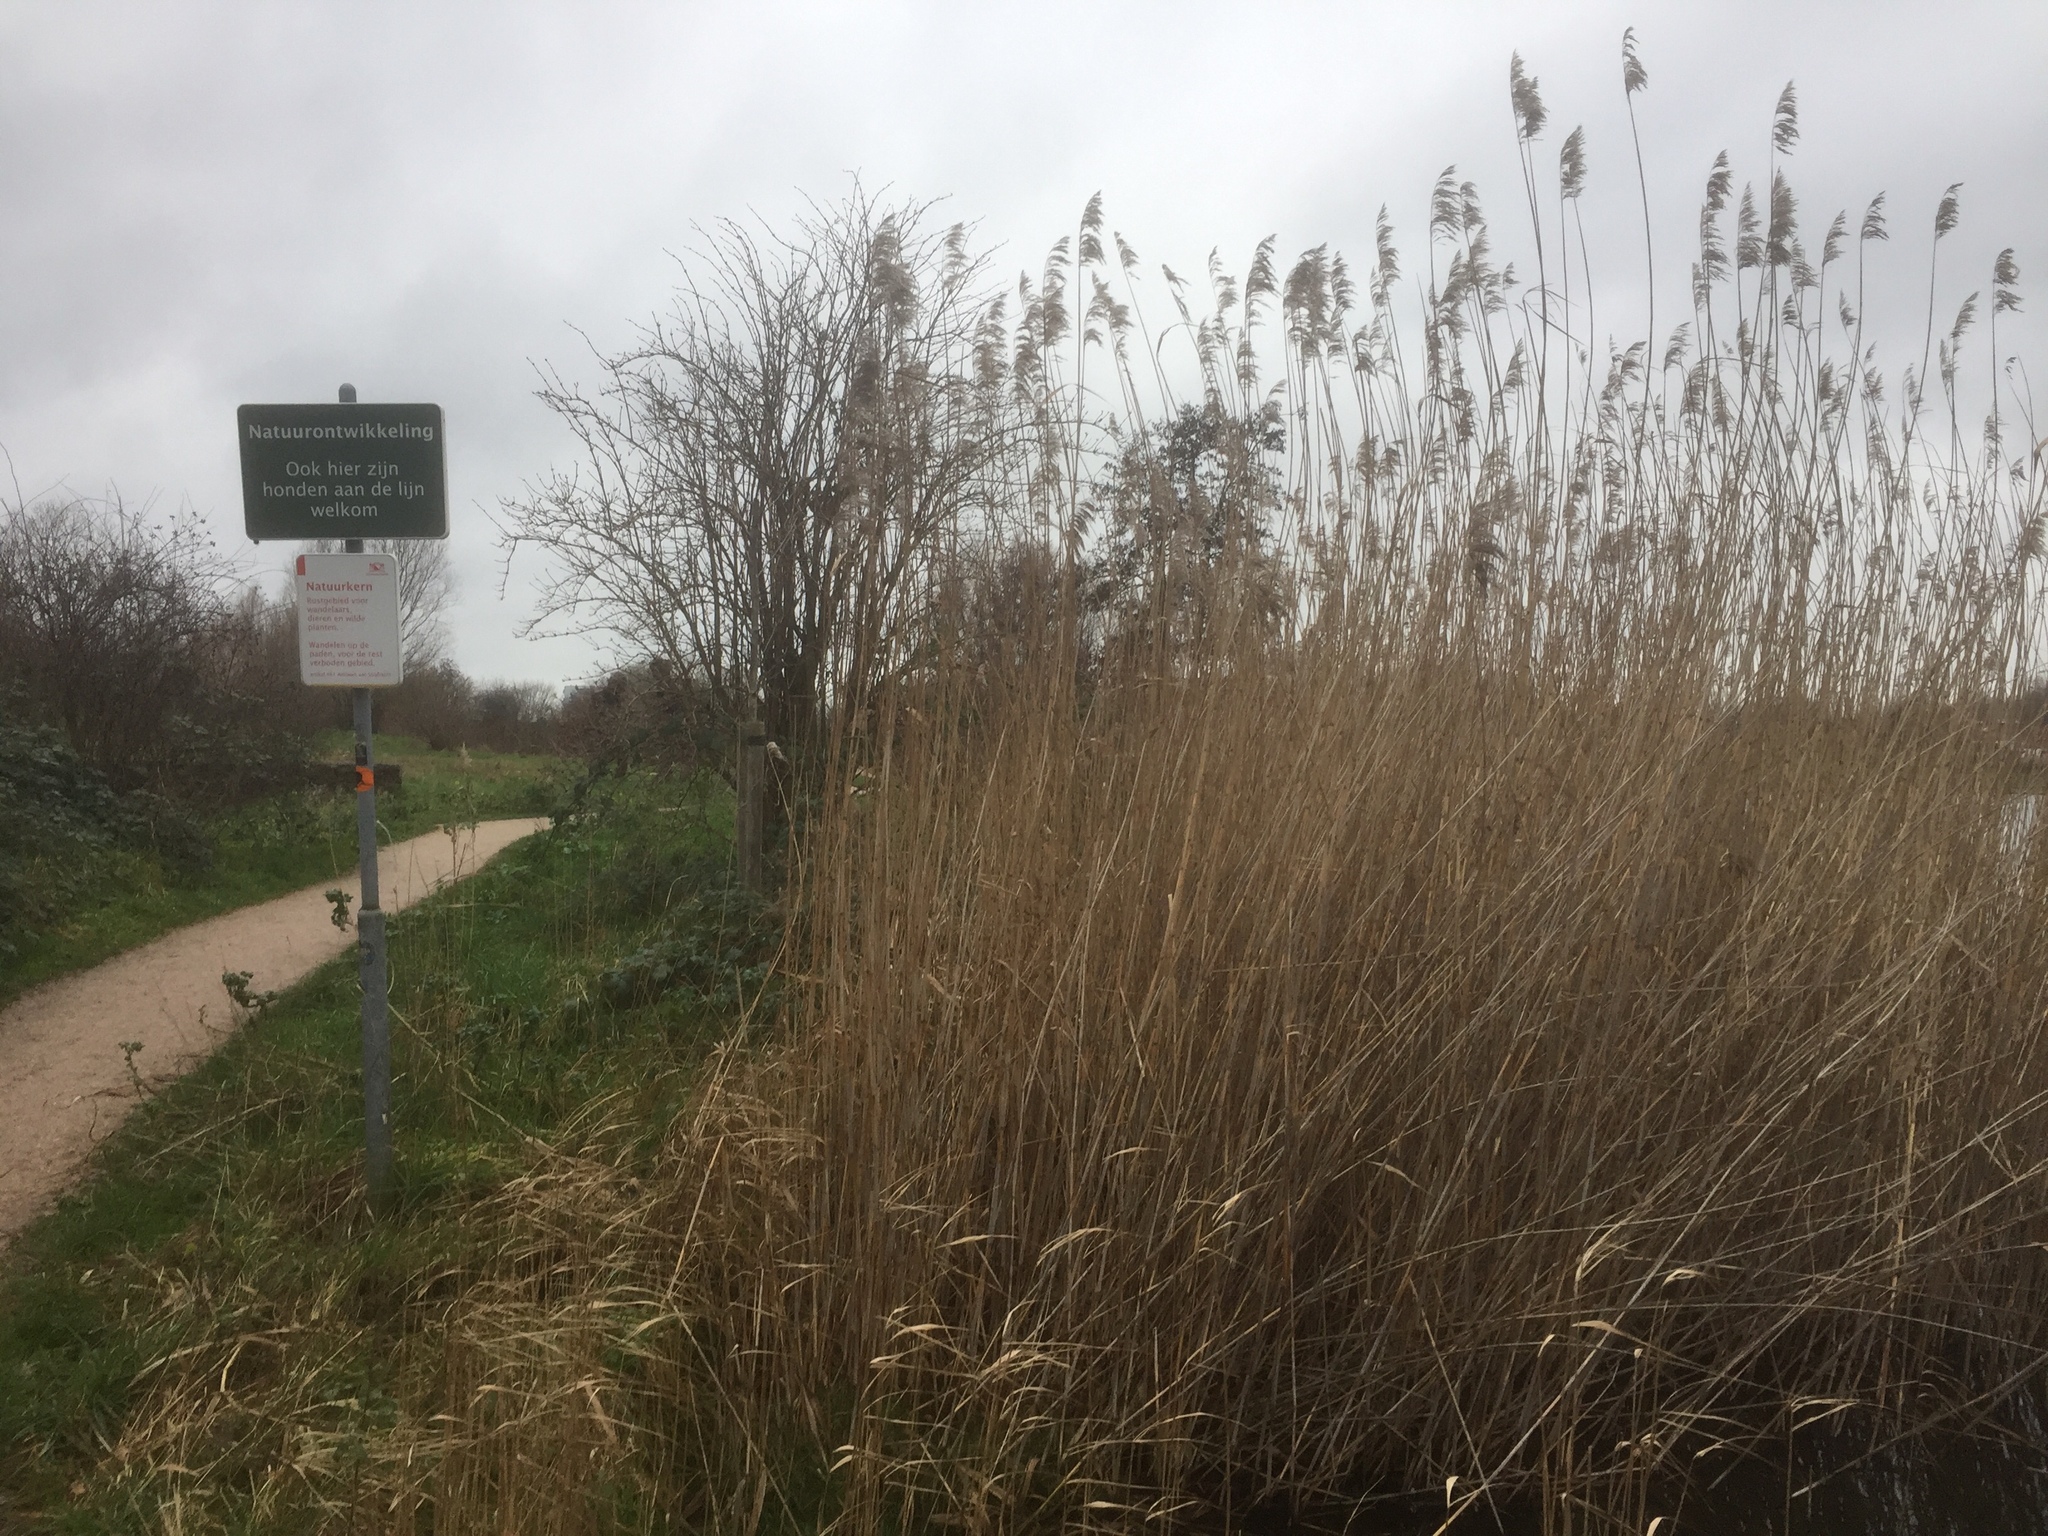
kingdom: Plantae
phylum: Tracheophyta
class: Liliopsida
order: Poales
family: Poaceae
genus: Phragmites
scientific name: Phragmites australis
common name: Common reed
